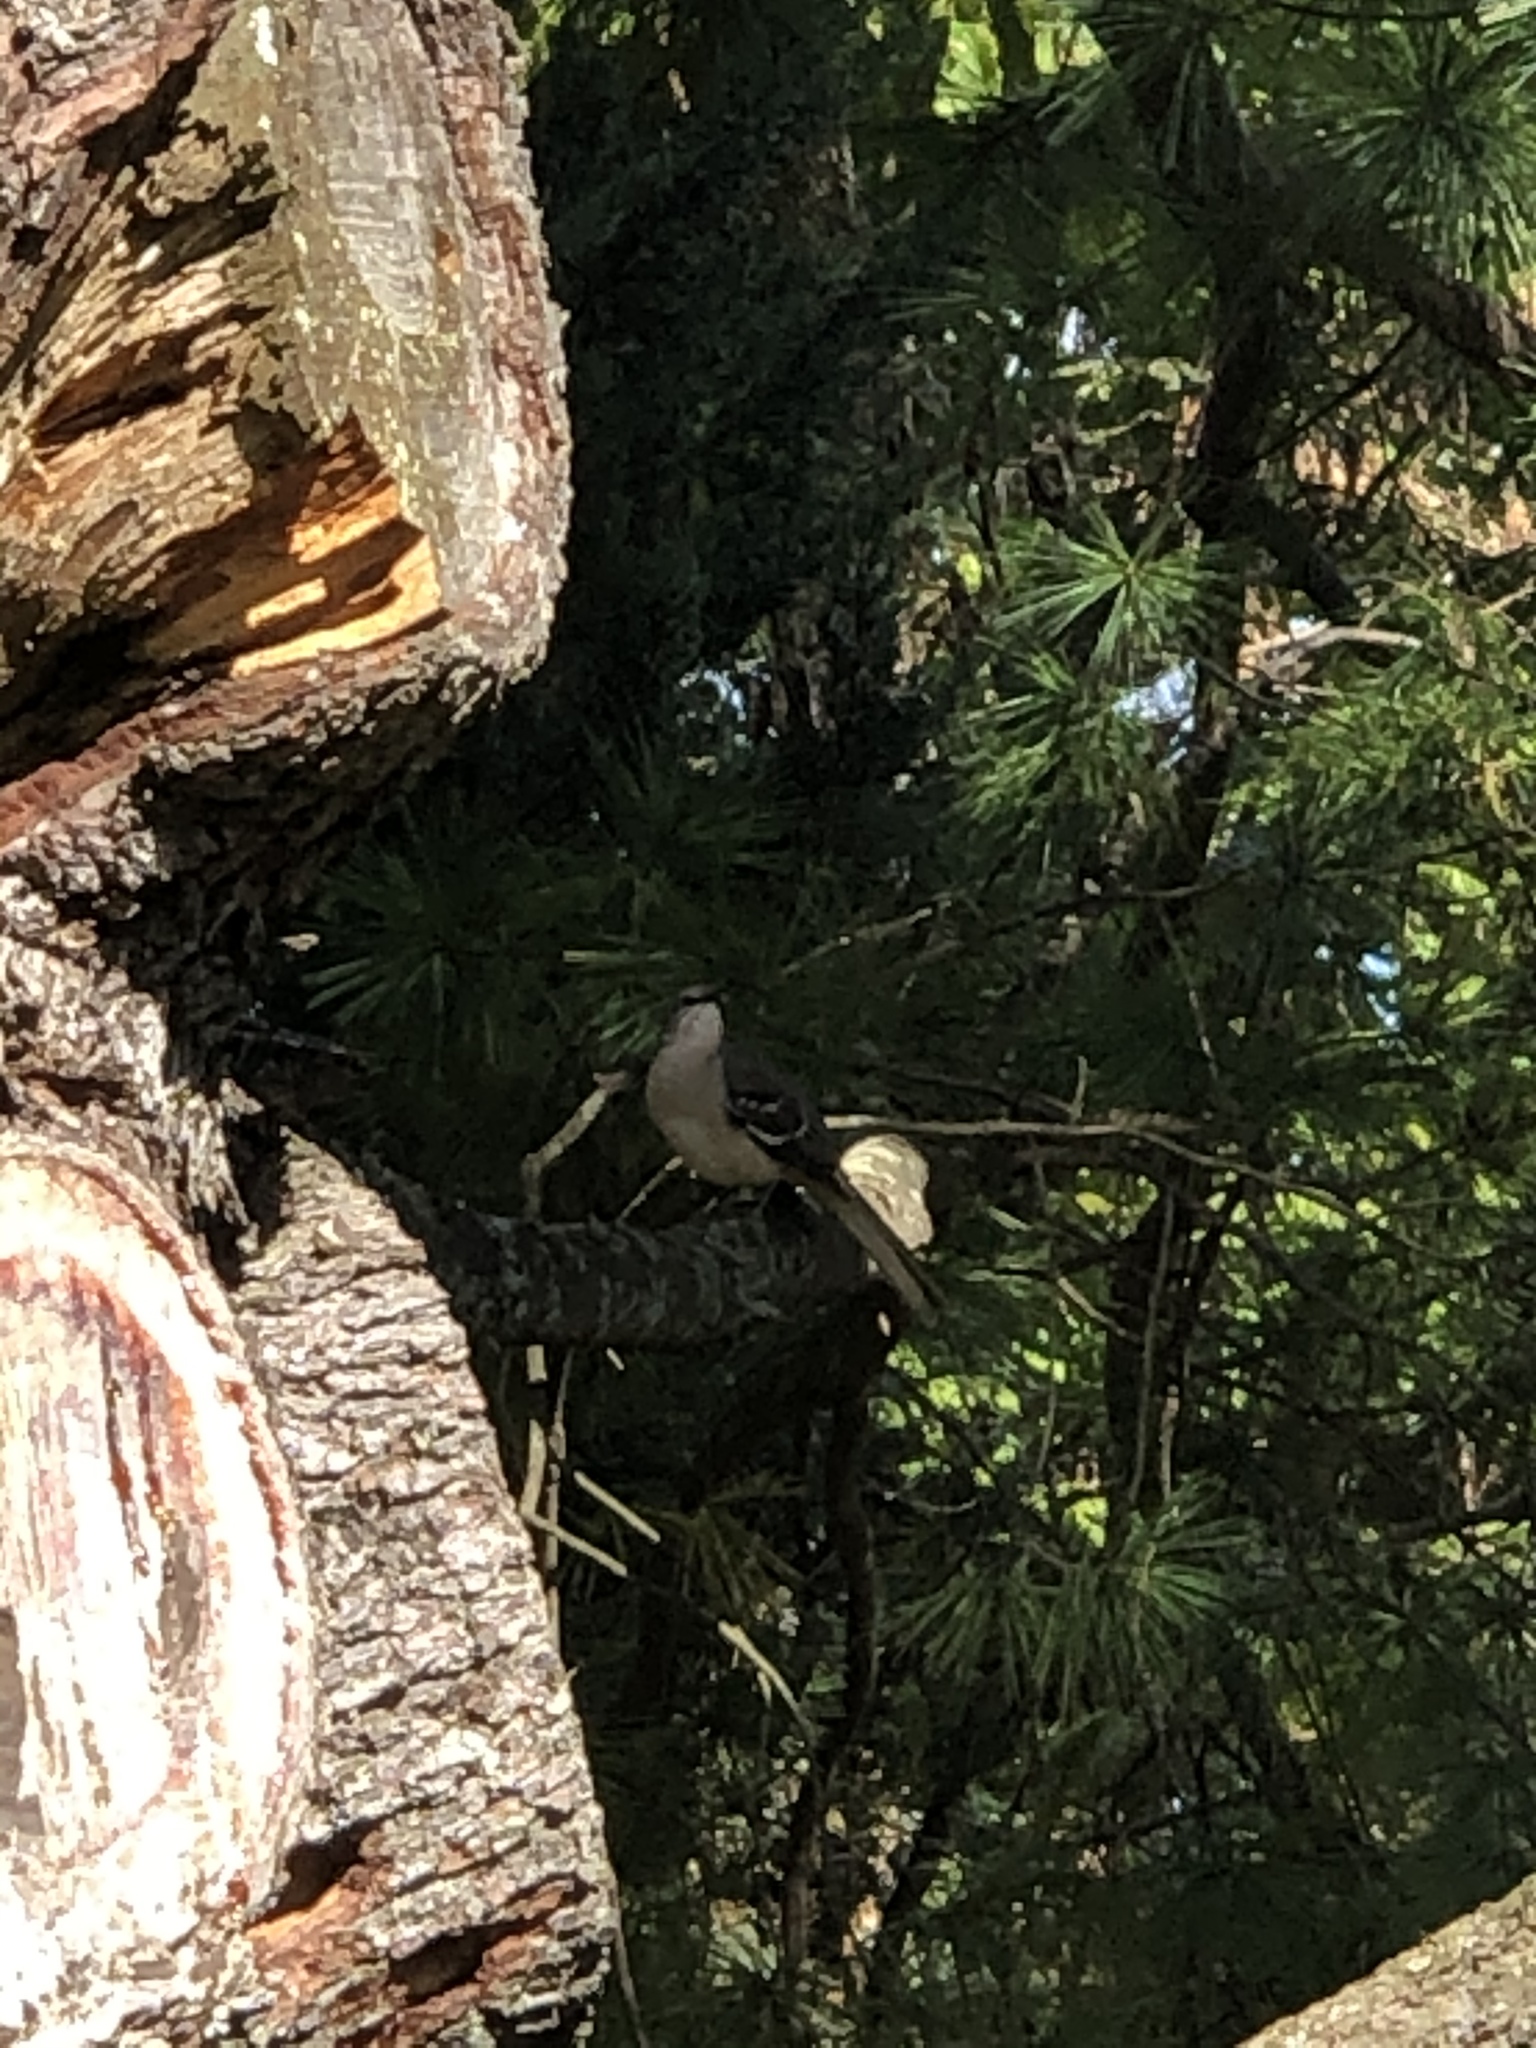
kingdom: Animalia
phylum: Chordata
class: Aves
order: Passeriformes
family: Mimidae
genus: Mimus
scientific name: Mimus polyglottos
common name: Northern mockingbird
